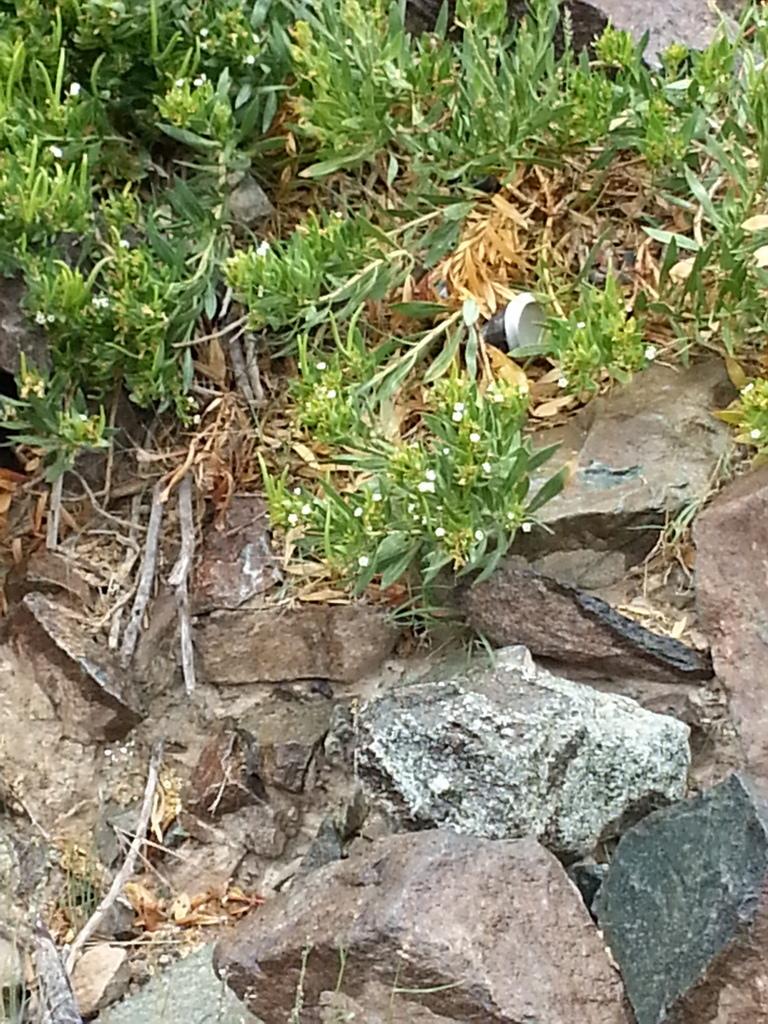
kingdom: Plantae
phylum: Tracheophyta
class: Magnoliopsida
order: Gentianales
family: Apocynaceae
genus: Rhazya
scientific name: Rhazya stricta
